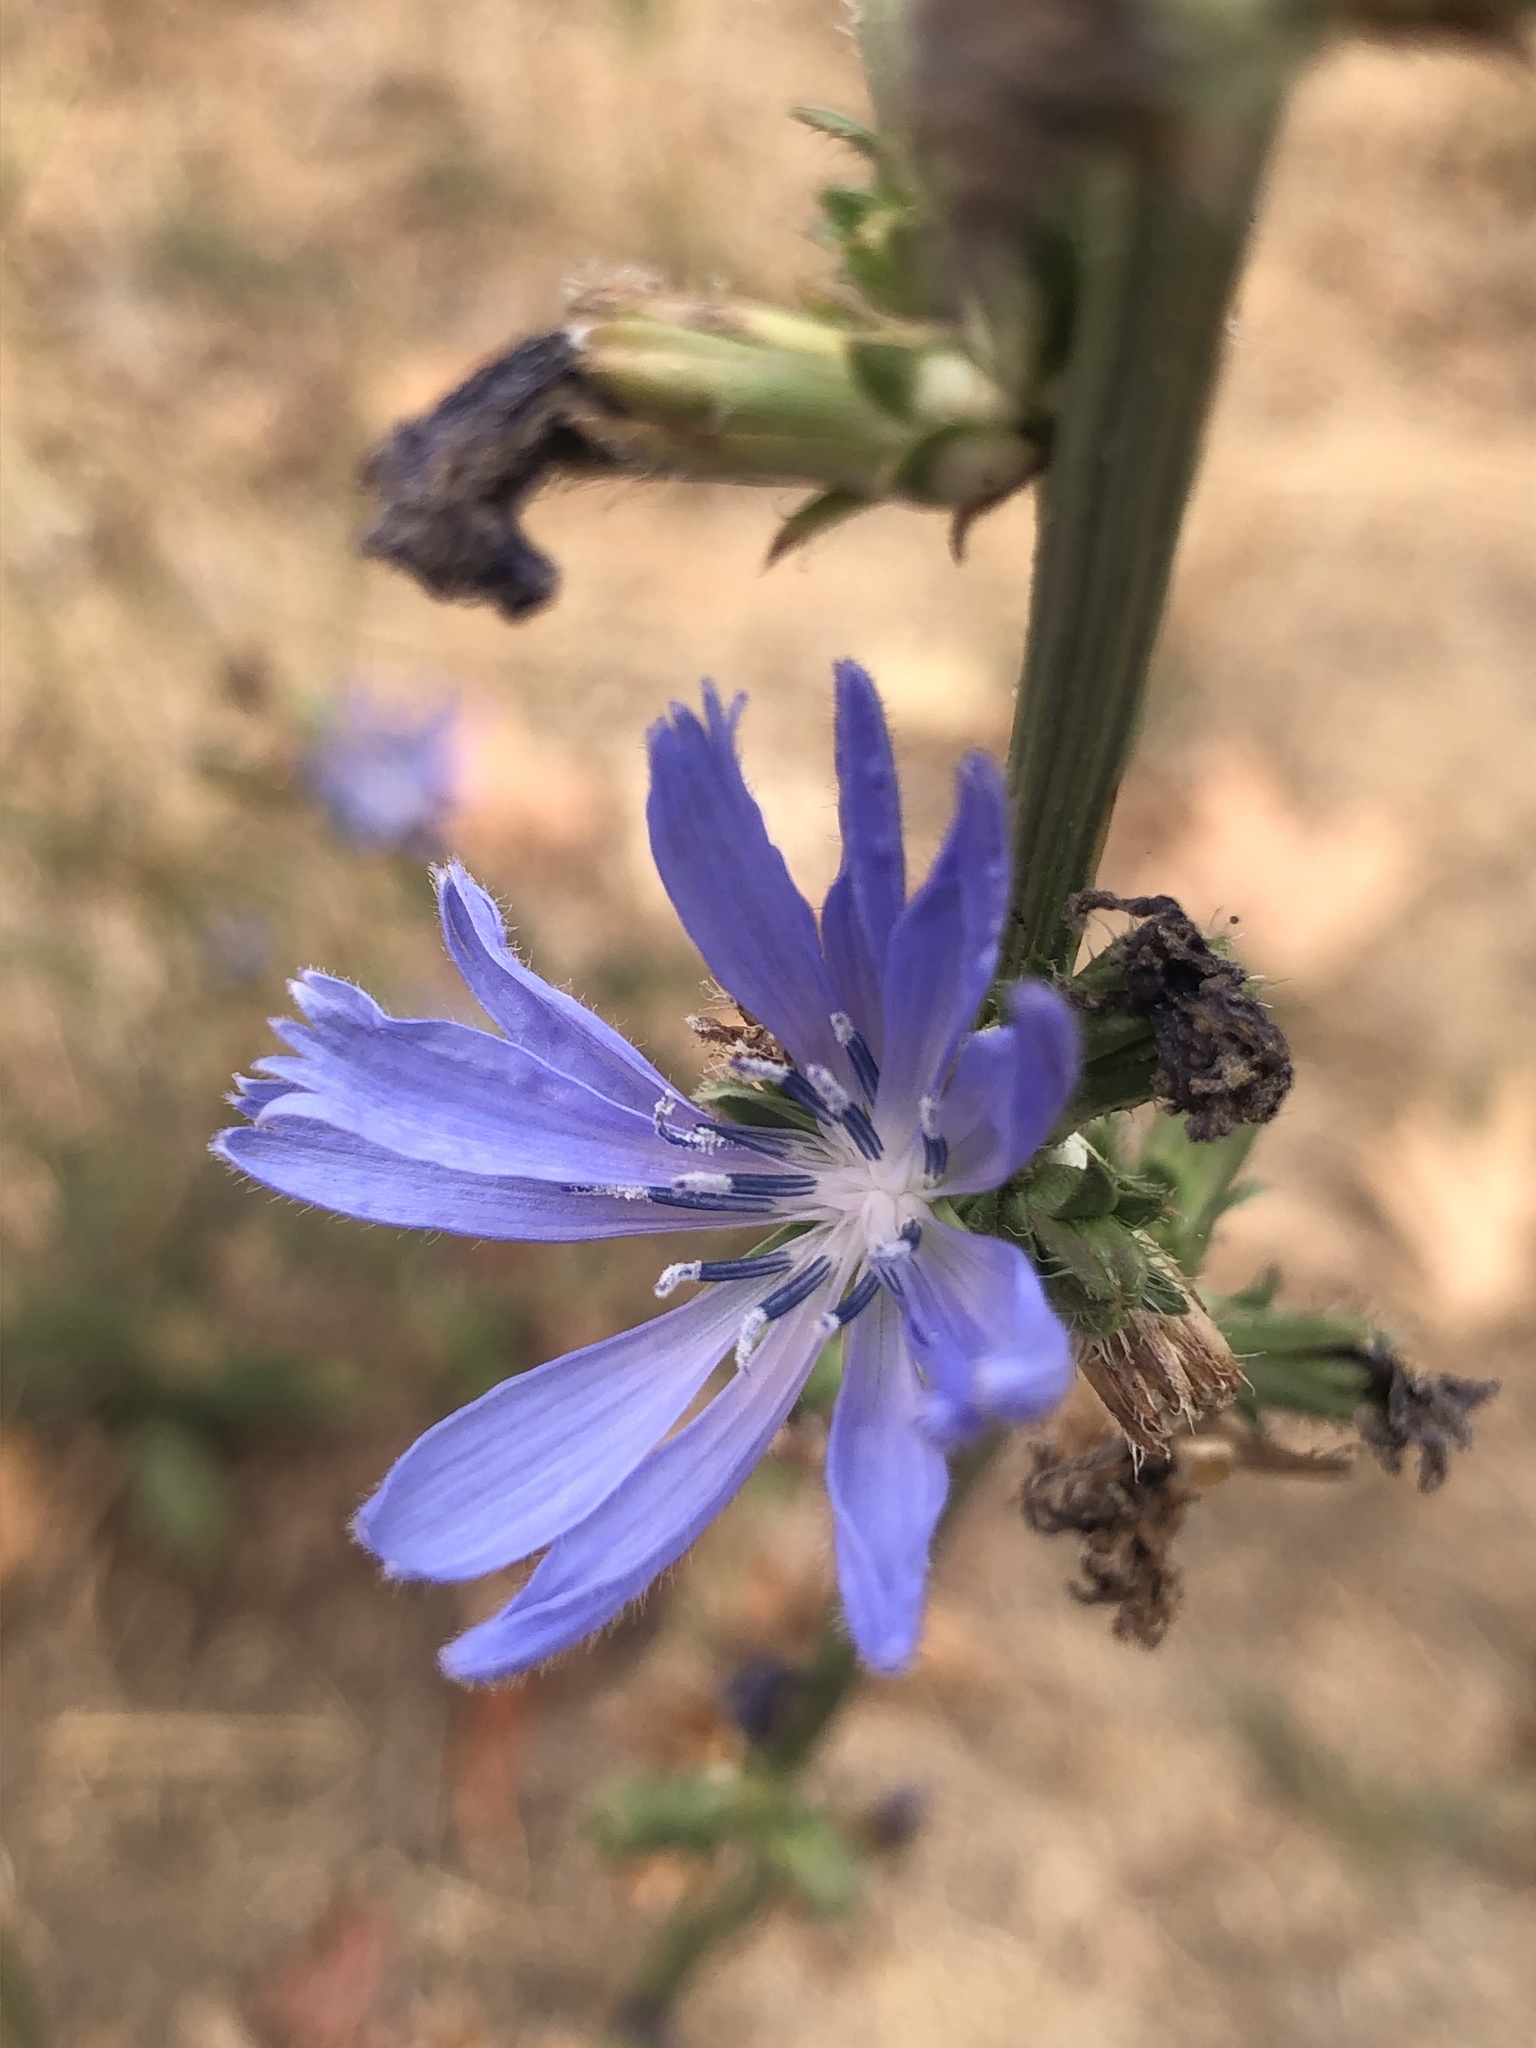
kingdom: Plantae
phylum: Tracheophyta
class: Magnoliopsida
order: Asterales
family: Asteraceae
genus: Cichorium
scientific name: Cichorium intybus
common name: Chicory
